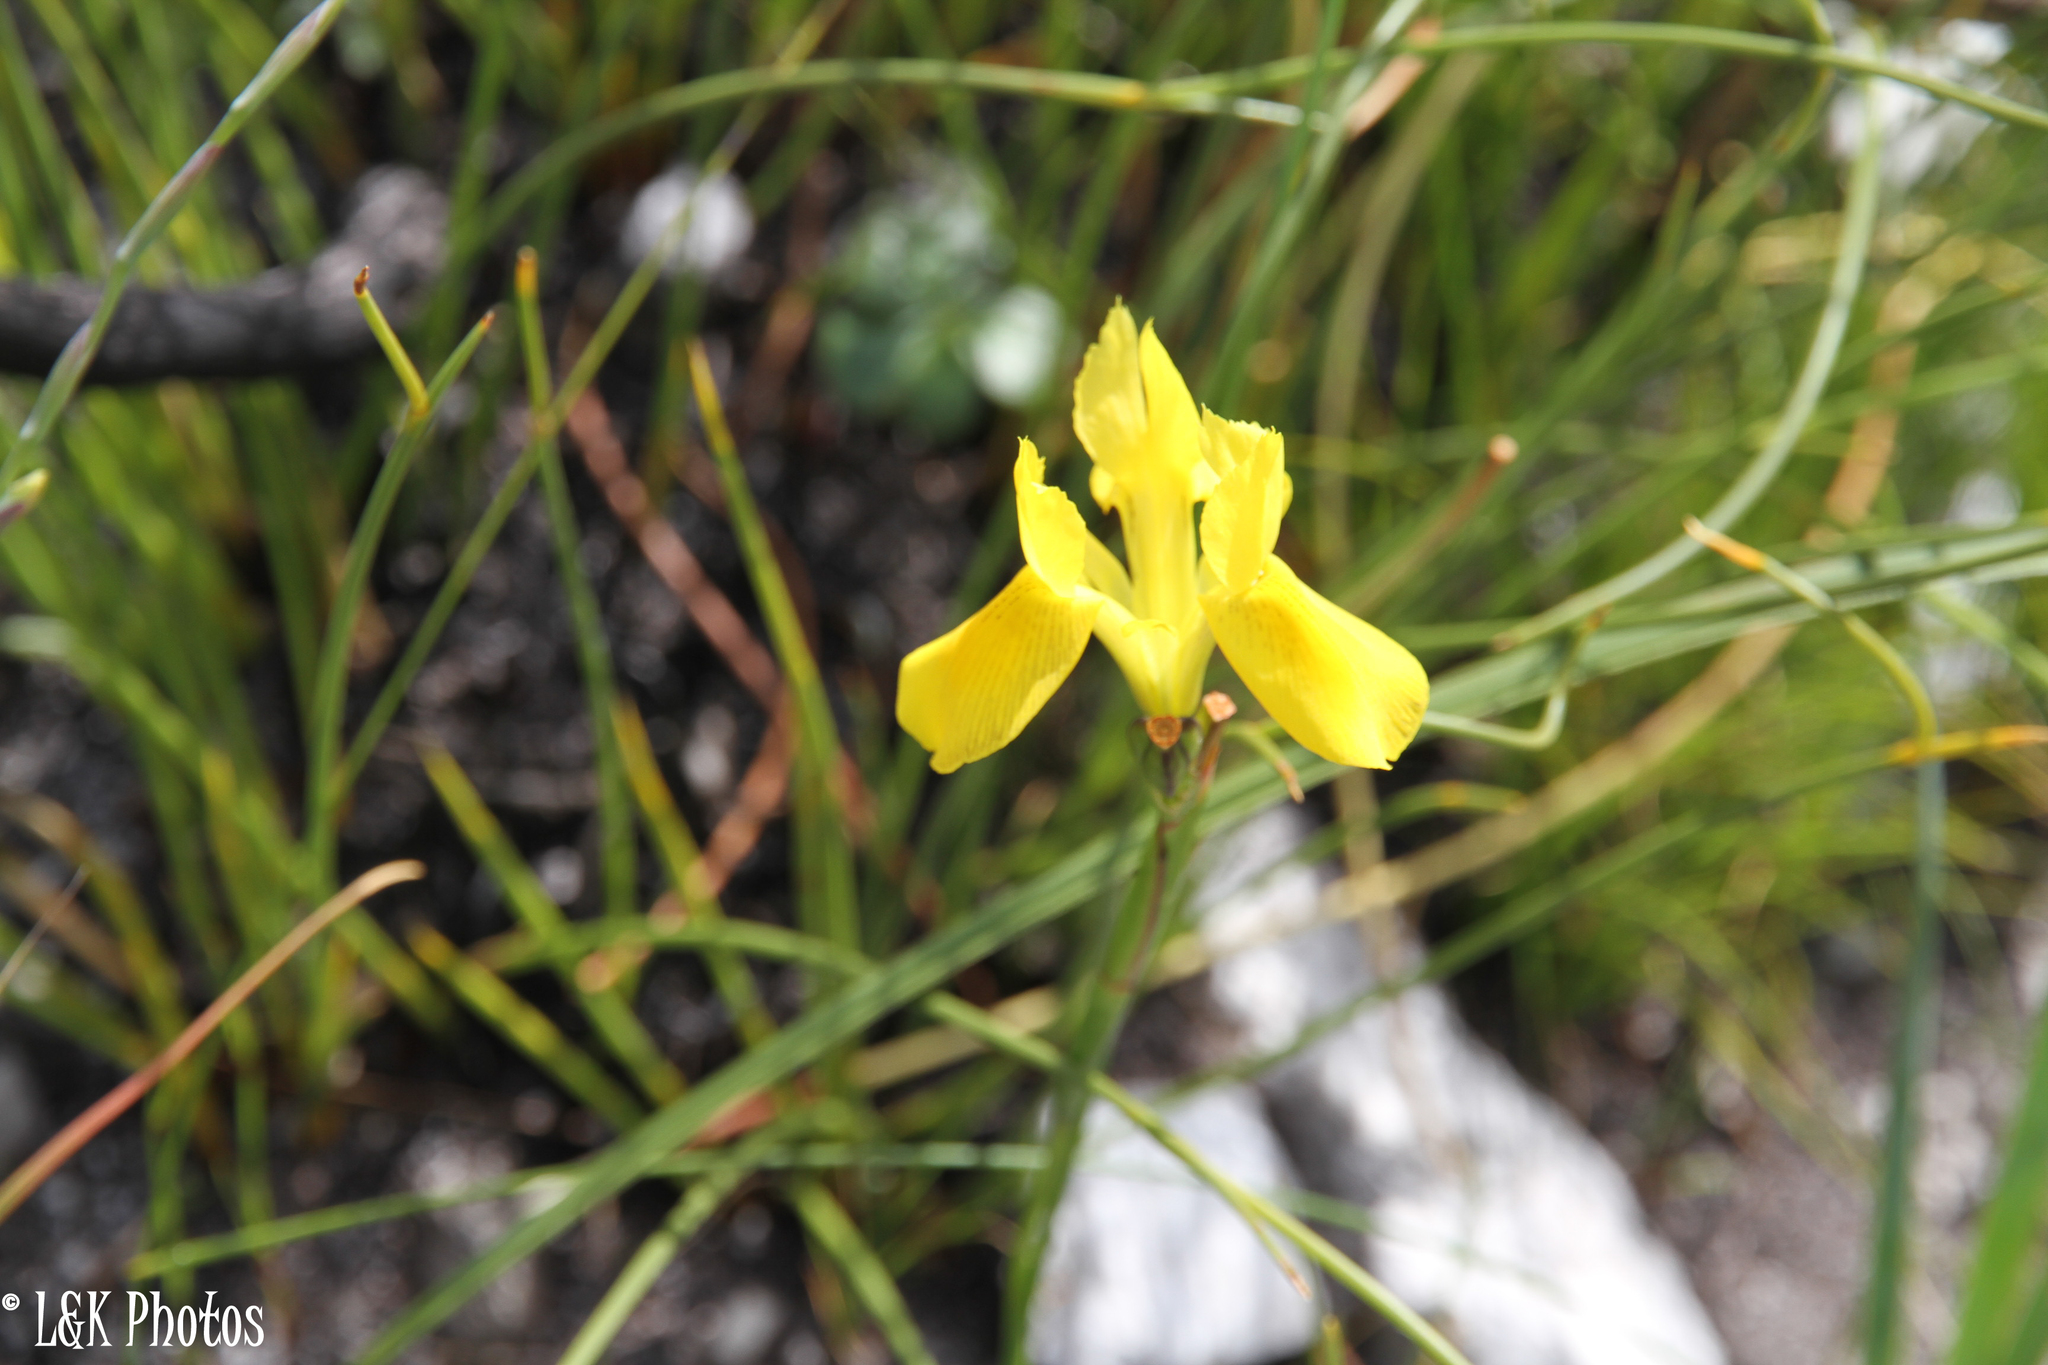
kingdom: Plantae
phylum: Tracheophyta
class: Liliopsida
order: Asparagales
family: Iridaceae
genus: Moraea
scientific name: Moraea neglecta
